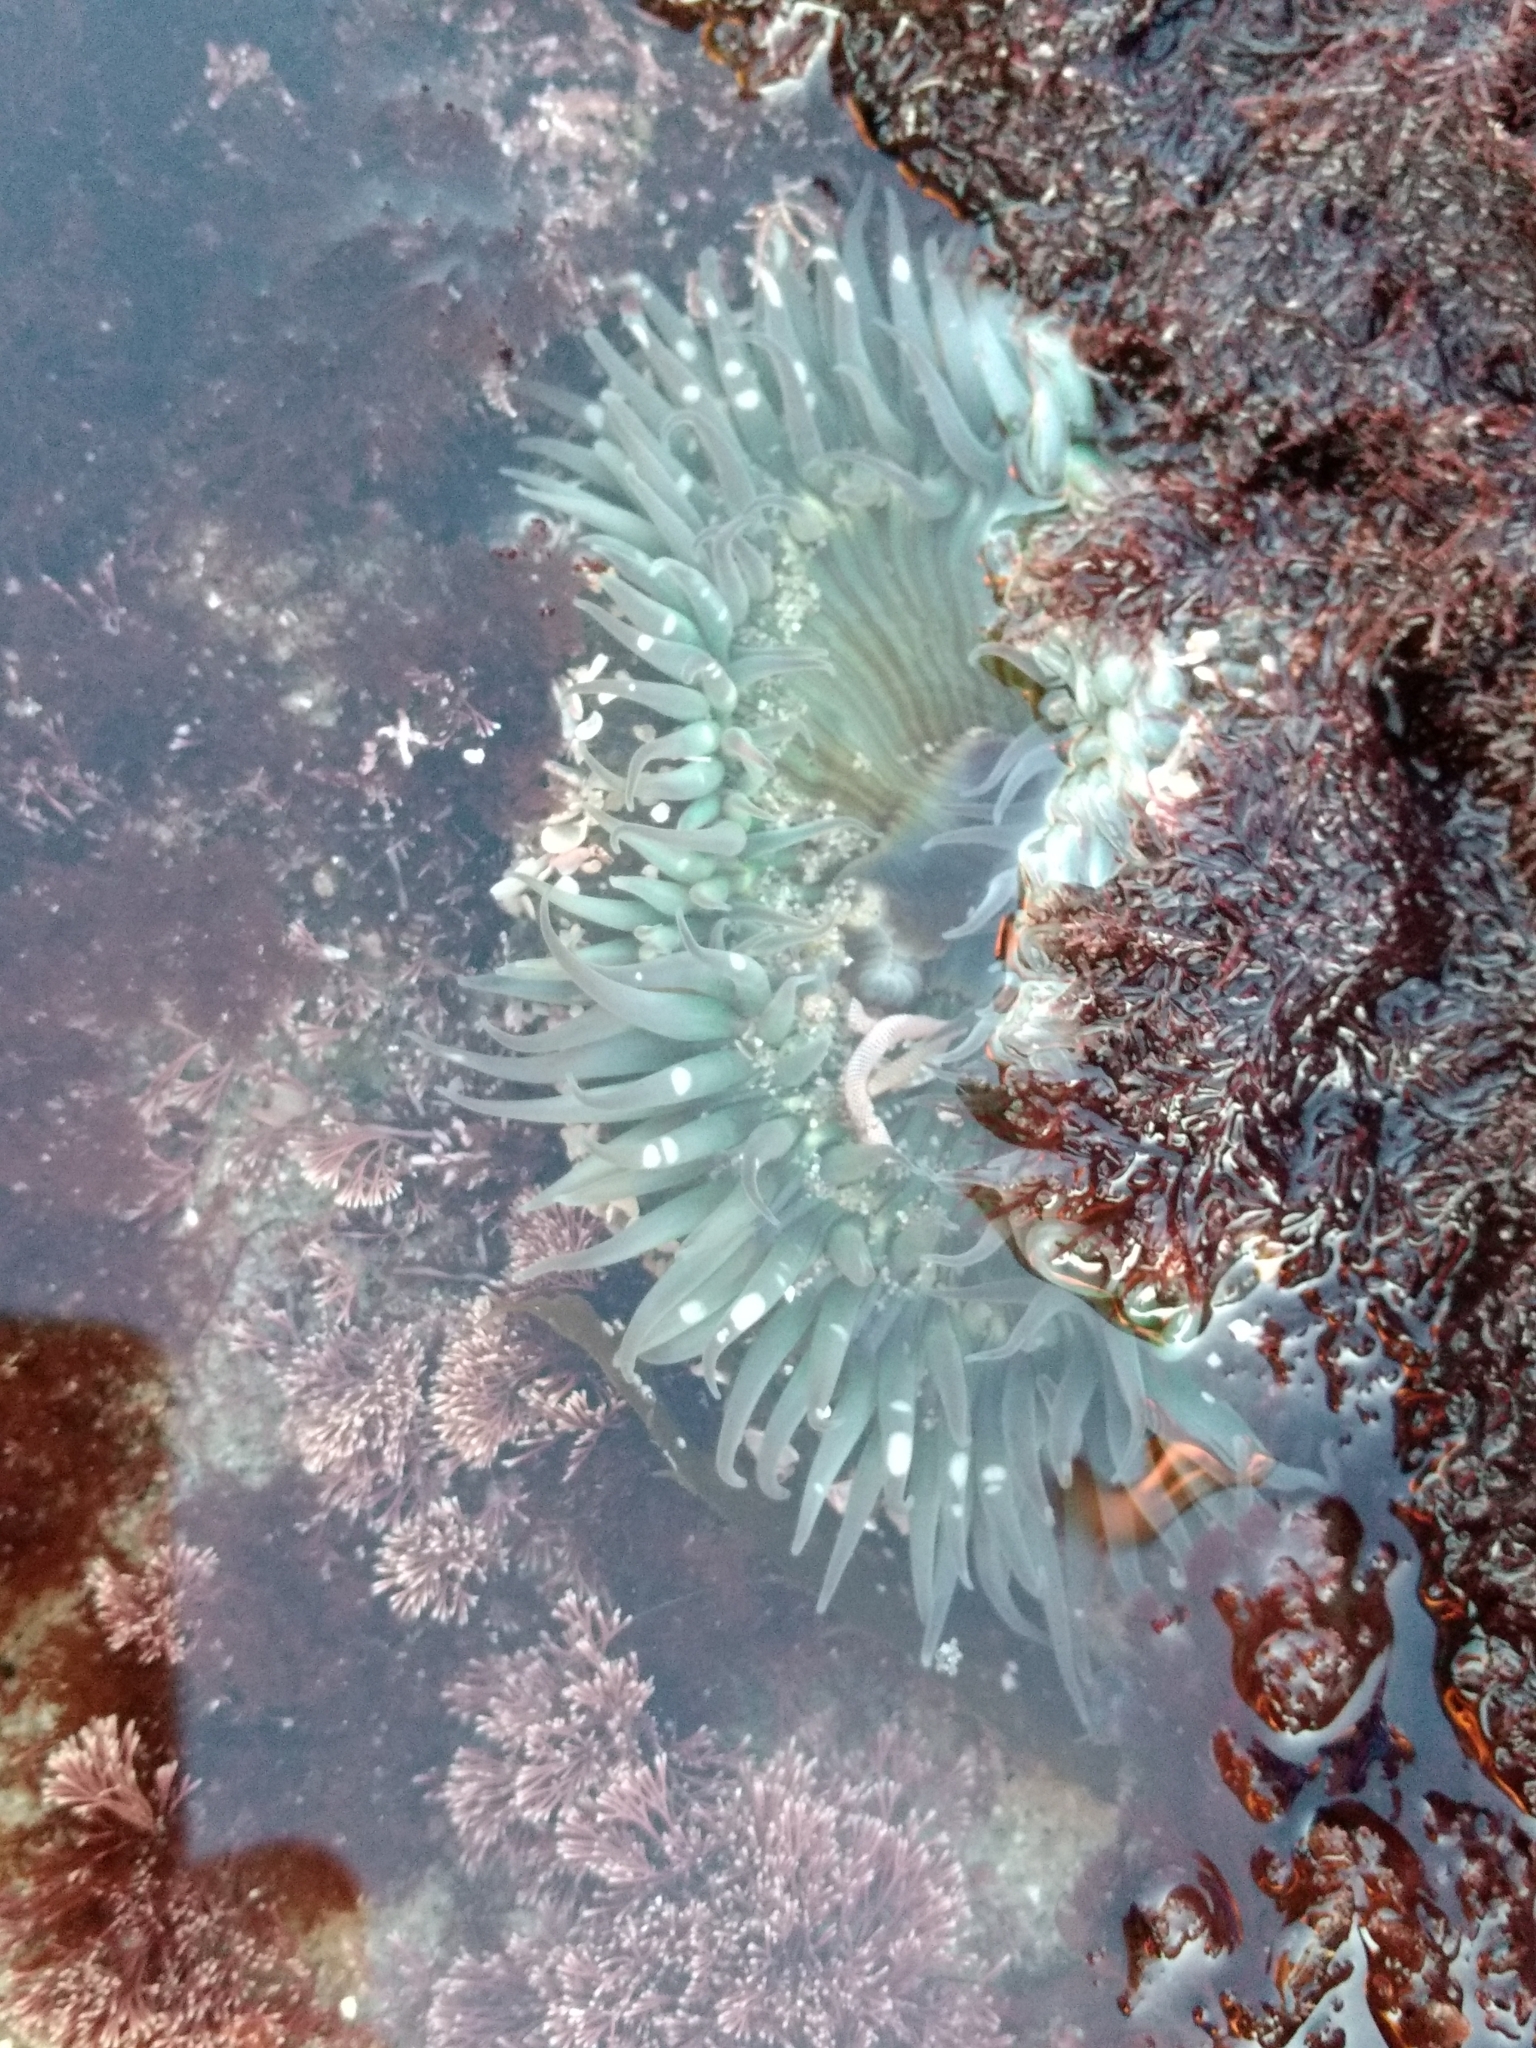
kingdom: Animalia
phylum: Cnidaria
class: Anthozoa
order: Actiniaria
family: Actiniidae
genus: Anthopleura
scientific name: Anthopleura sola
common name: Sun anemone
